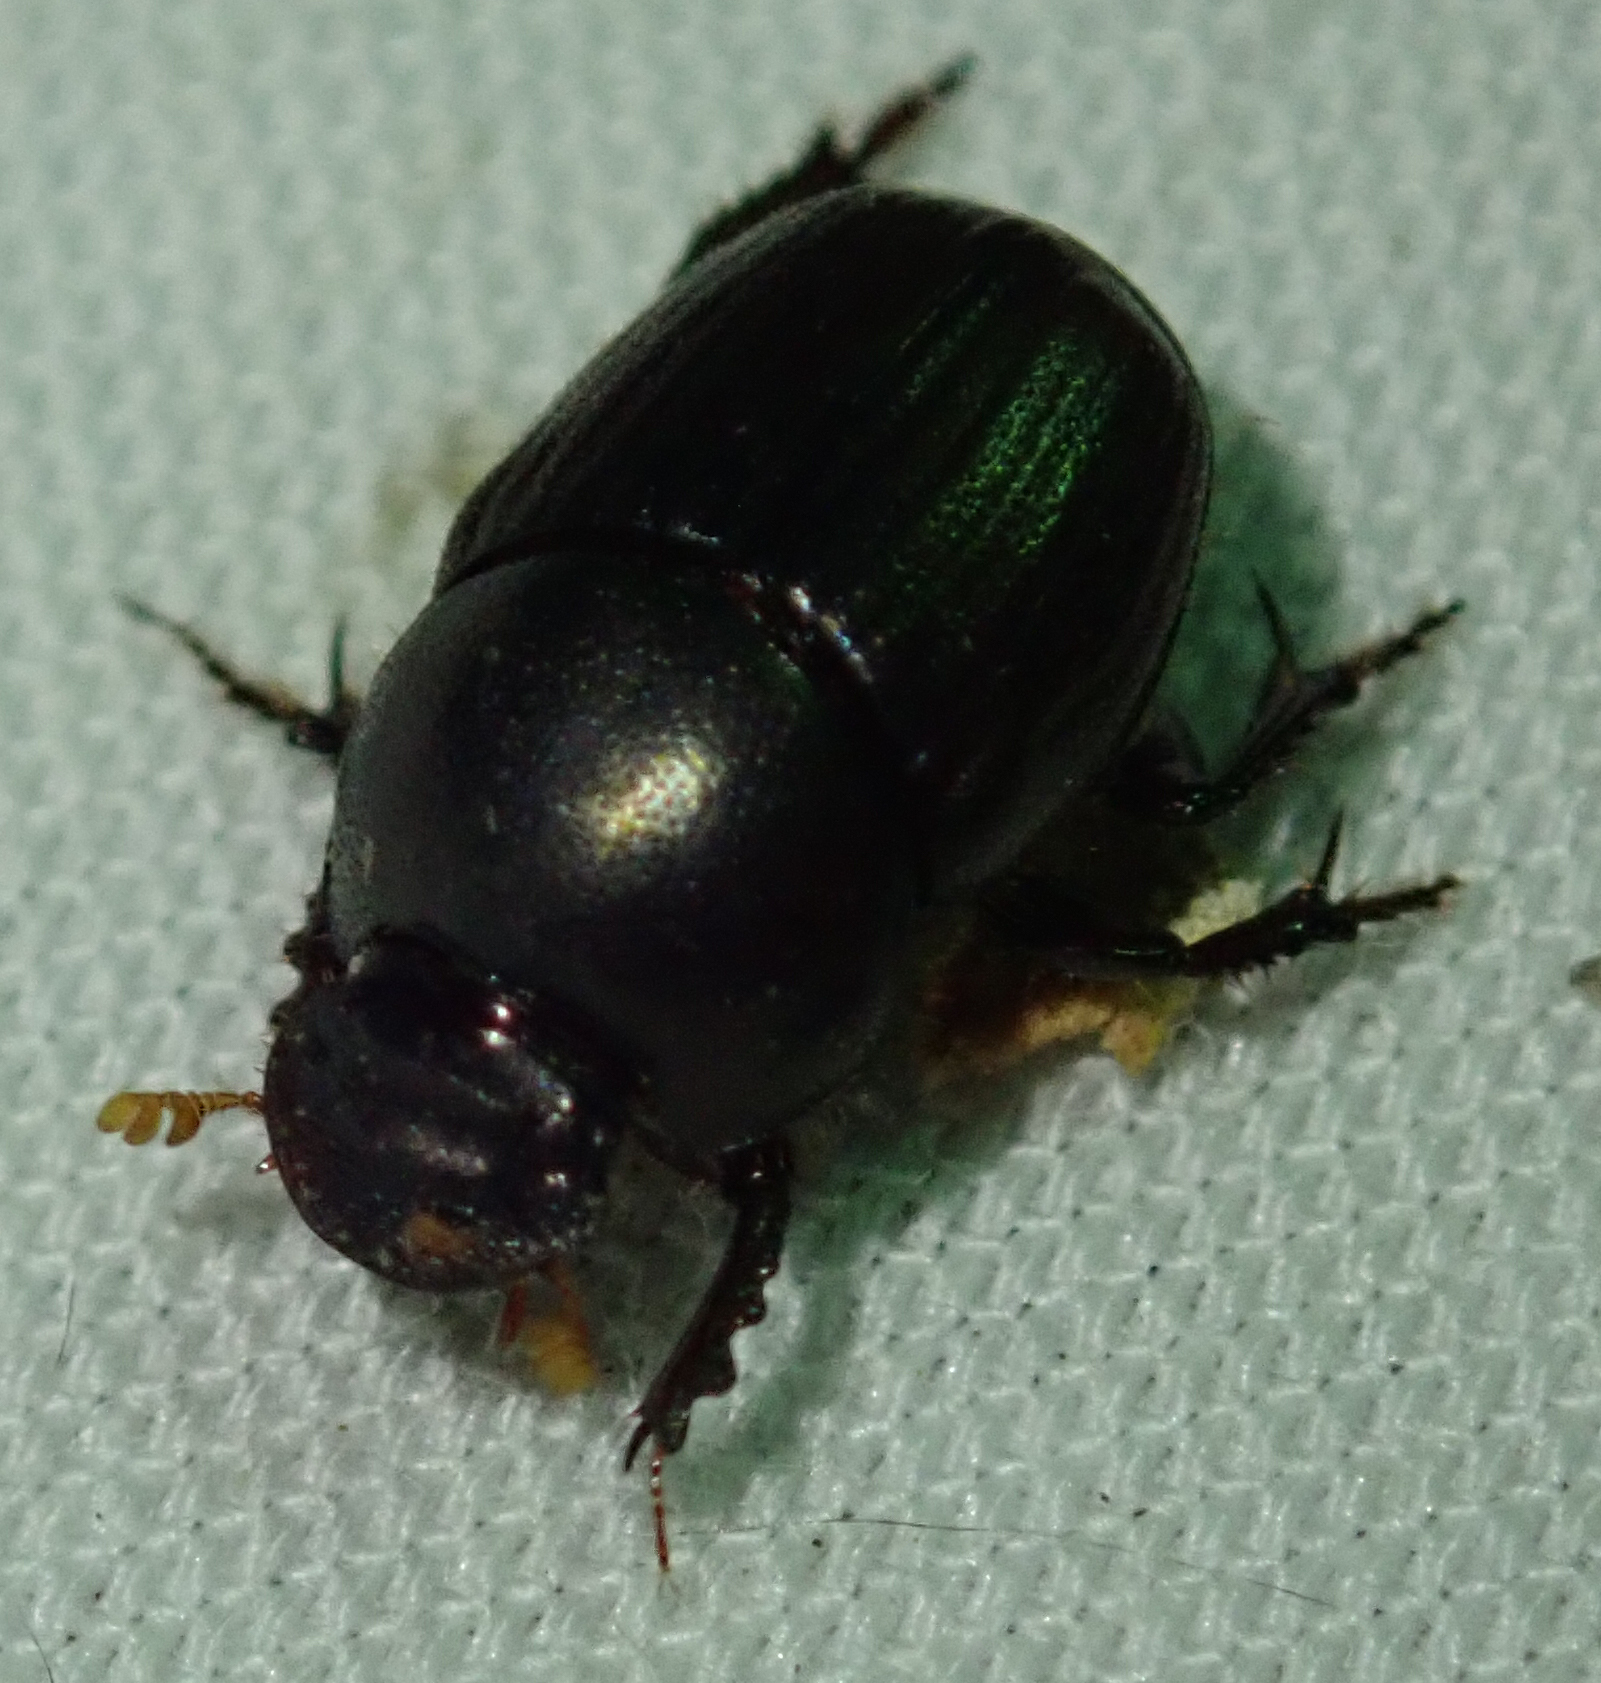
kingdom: Animalia
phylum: Arthropoda
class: Insecta
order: Coleoptera
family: Scarabaeidae
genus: Euonthophagus
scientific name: Euonthophagus carbonarius
